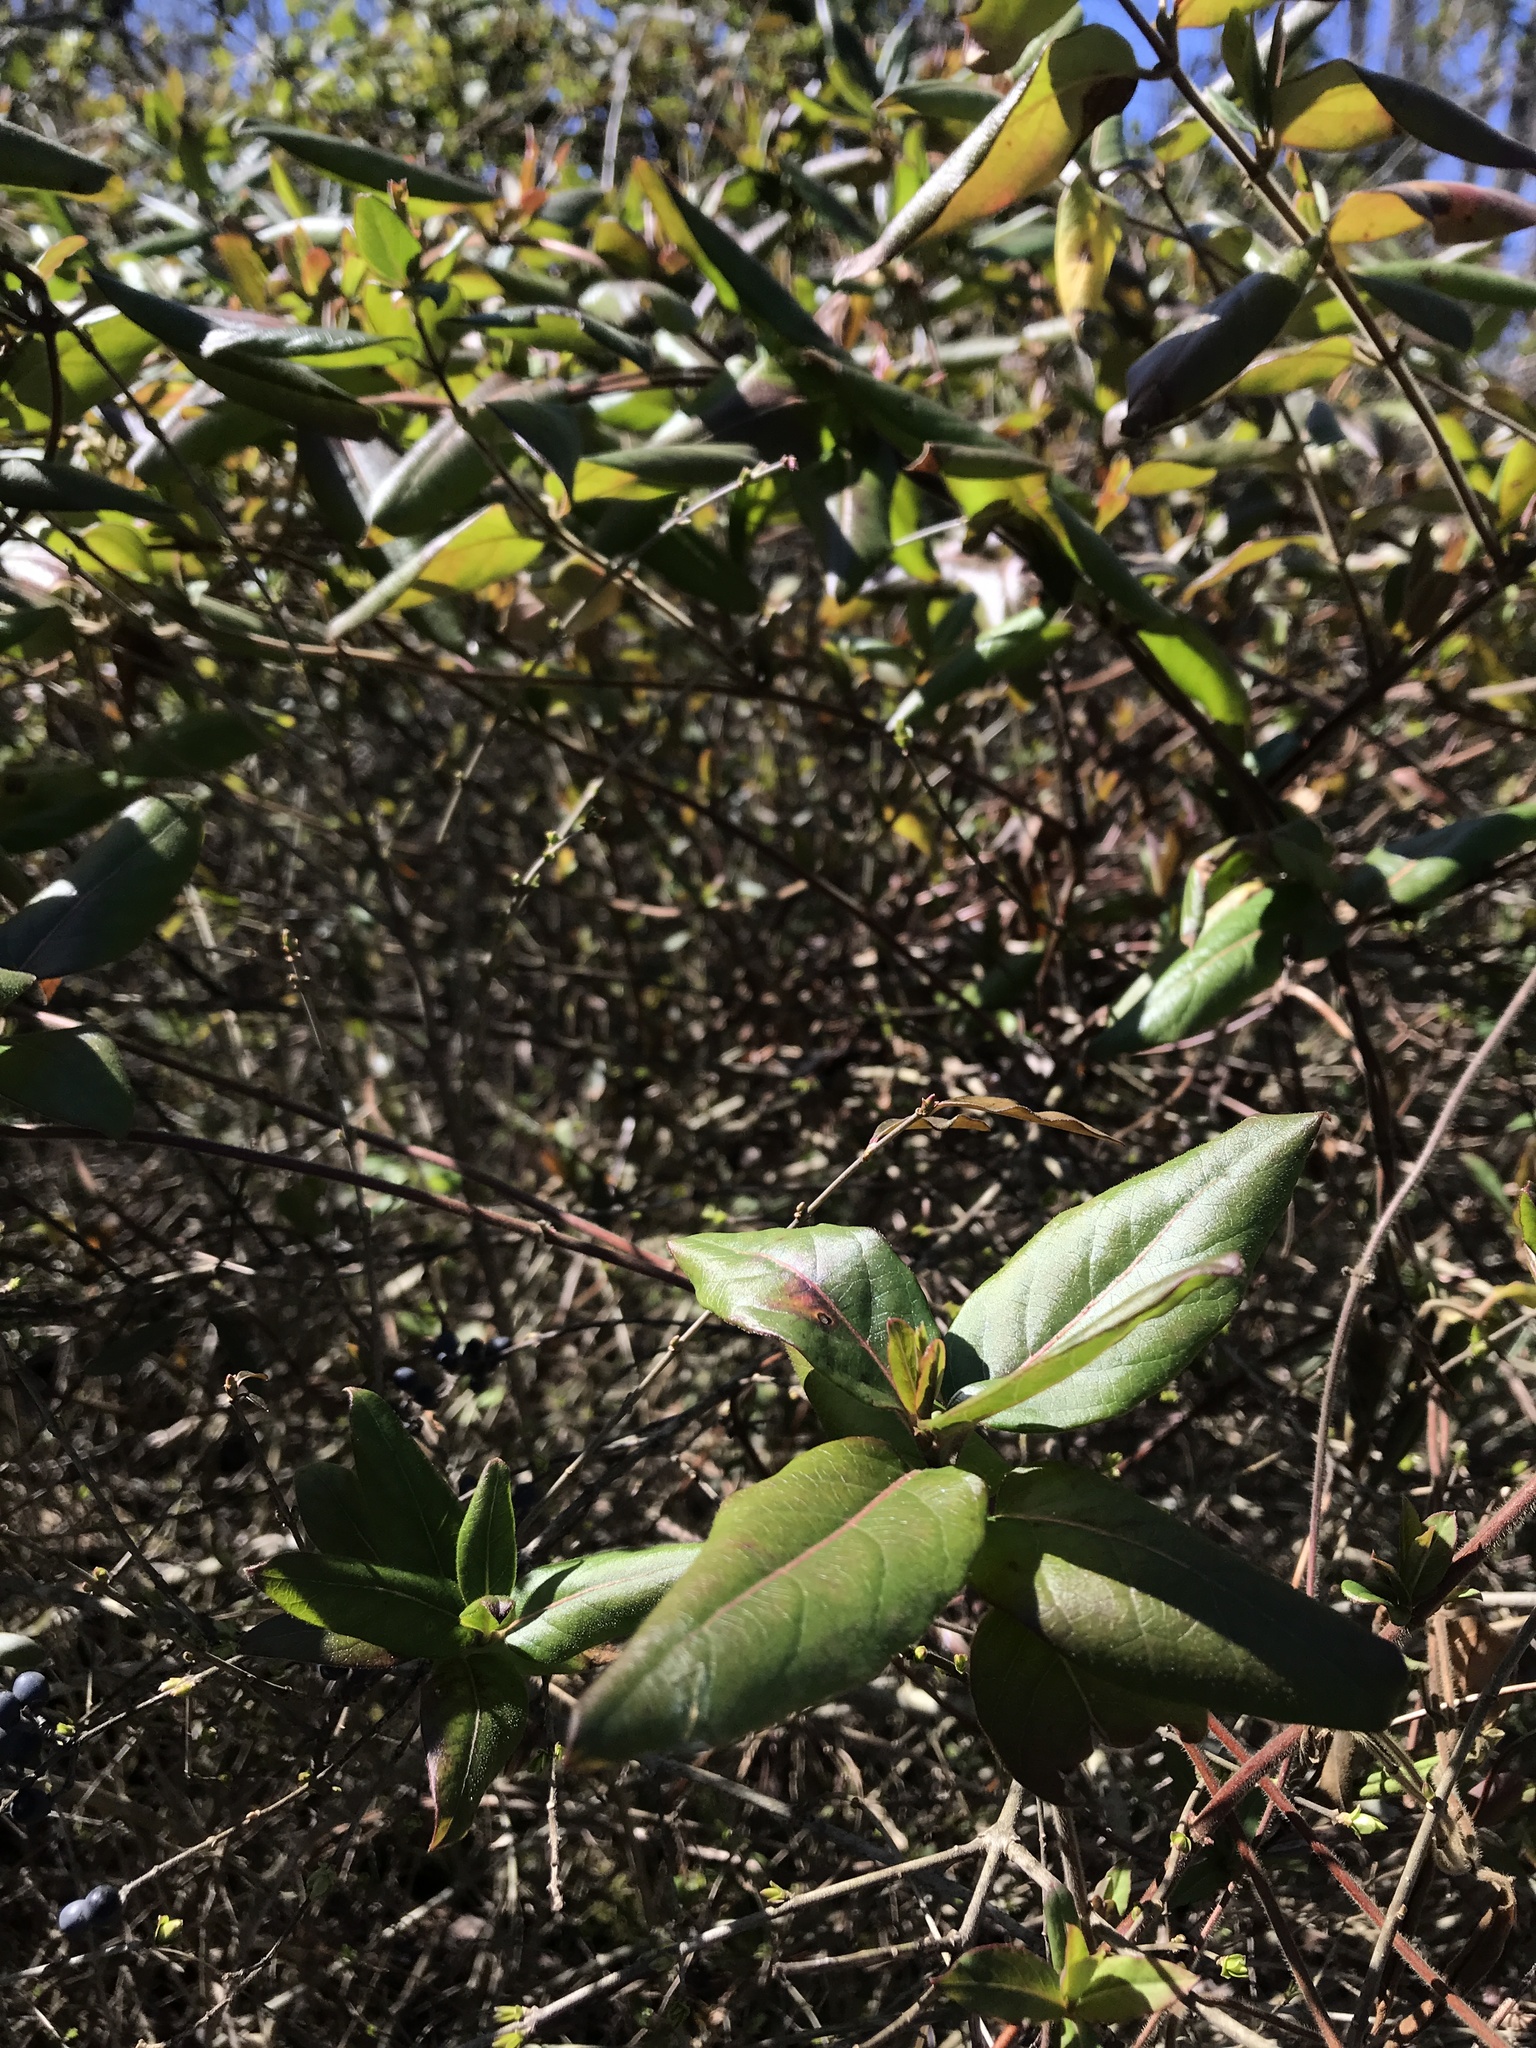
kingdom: Plantae
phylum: Tracheophyta
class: Magnoliopsida
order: Dipsacales
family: Caprifoliaceae
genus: Lonicera
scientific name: Lonicera japonica
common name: Japanese honeysuckle
